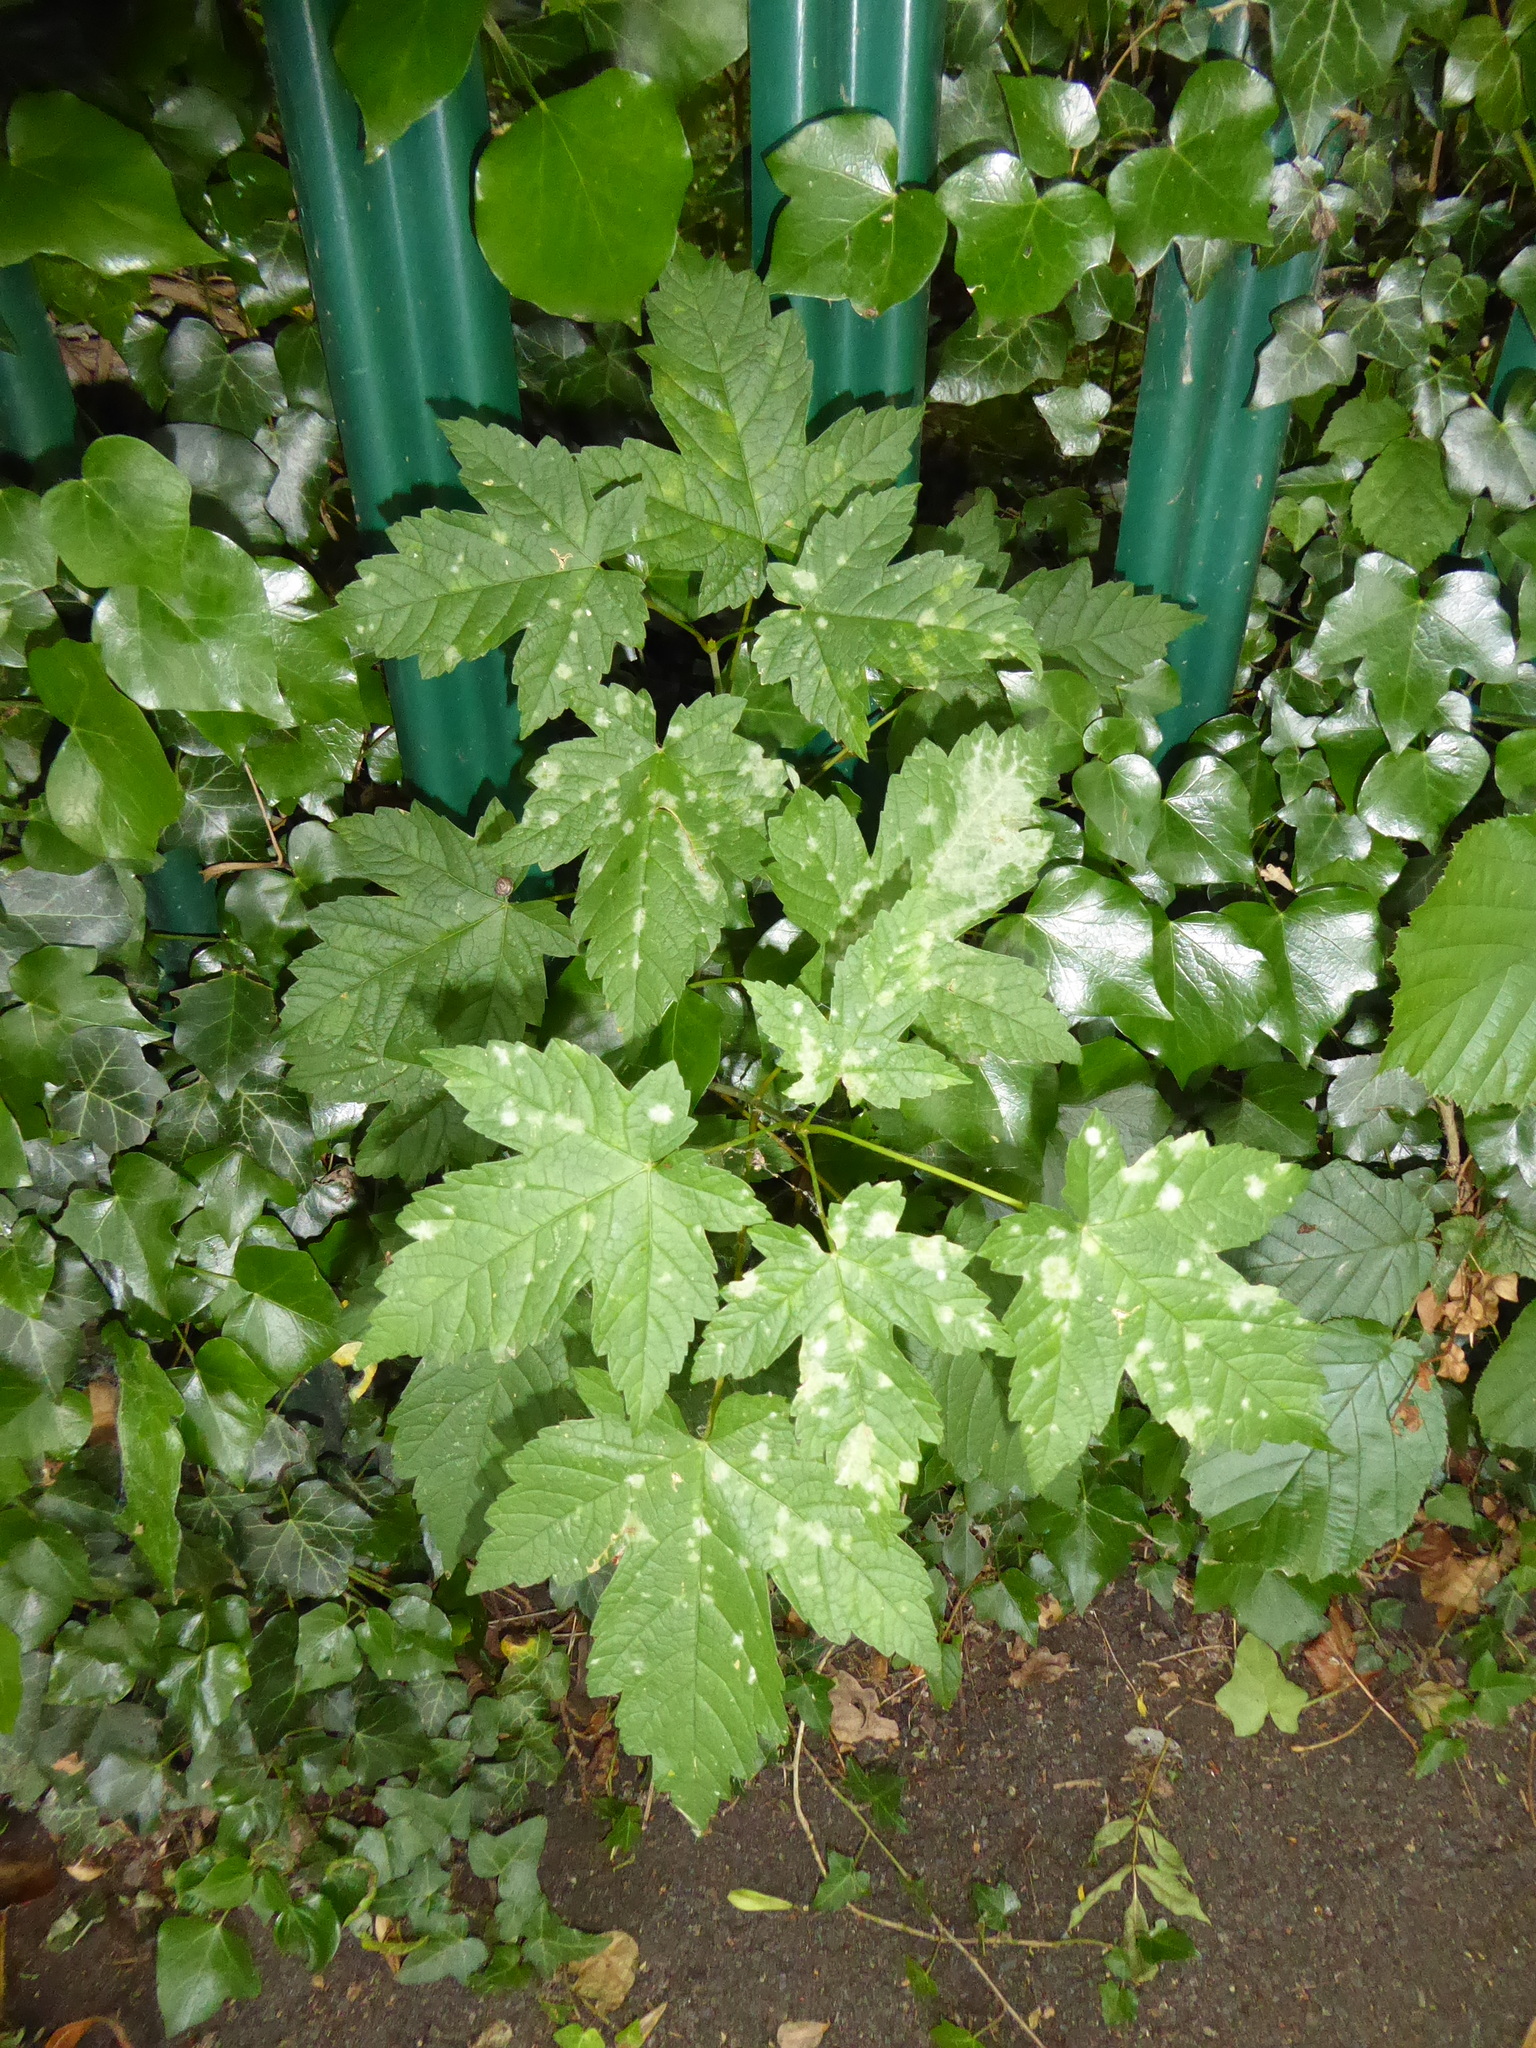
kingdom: Fungi
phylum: Ascomycota
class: Leotiomycetes
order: Helotiales
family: Erysiphaceae
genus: Sawadaea
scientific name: Sawadaea bicornis
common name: Maple mildew
